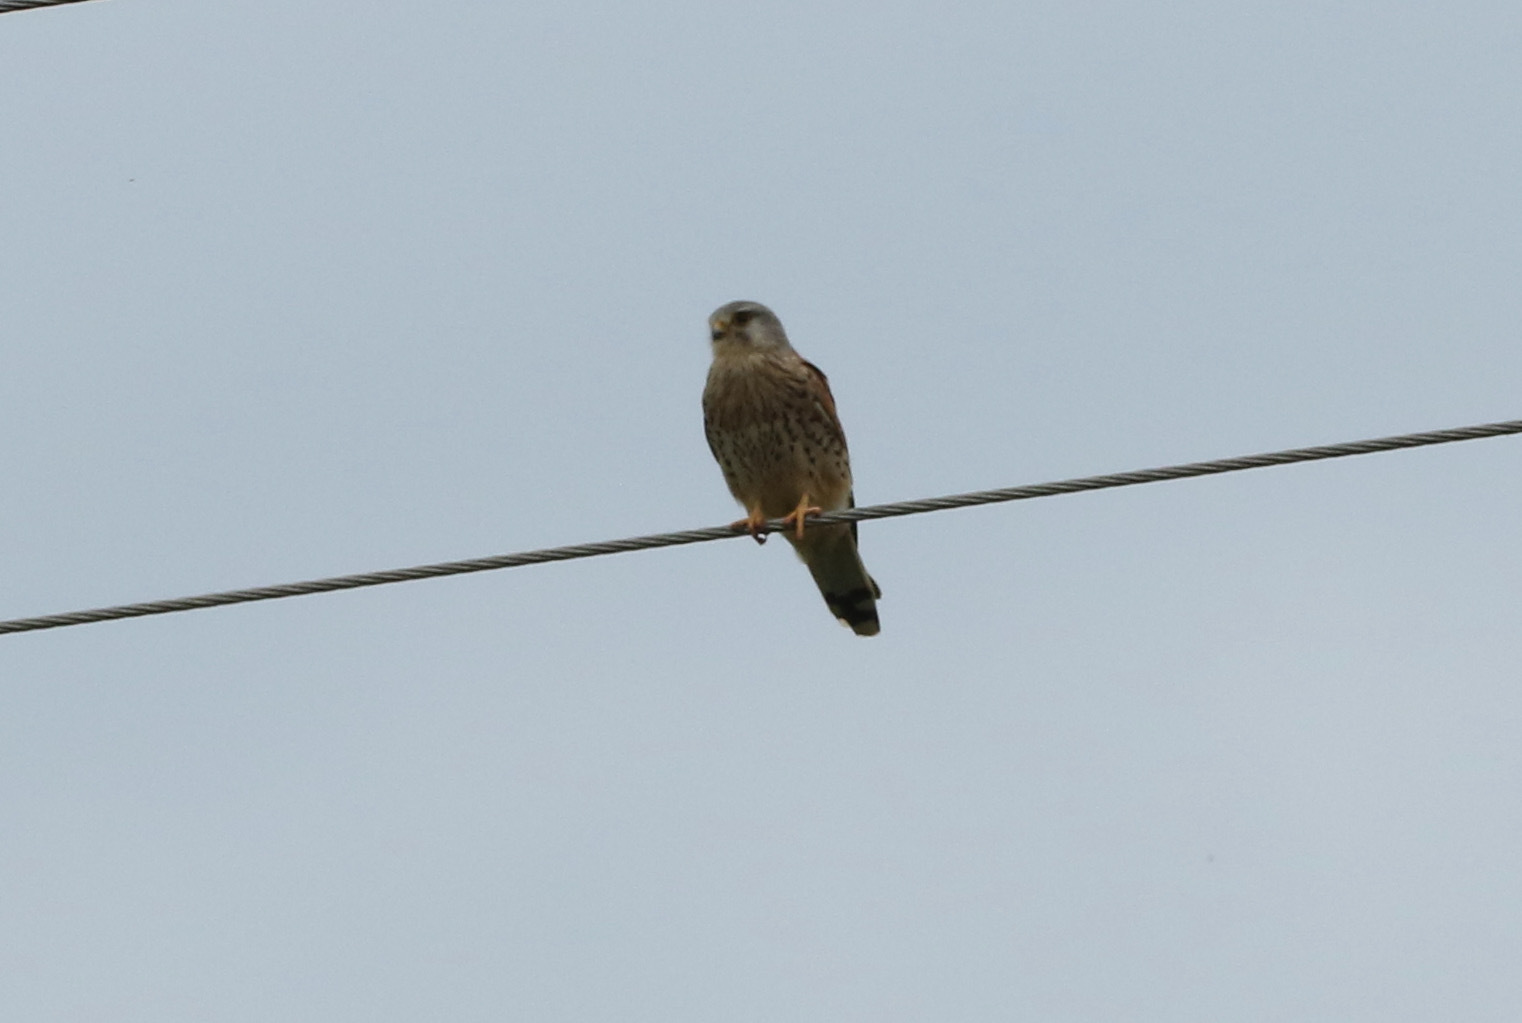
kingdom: Animalia
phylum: Chordata
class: Aves
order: Falconiformes
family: Falconidae
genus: Falco
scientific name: Falco tinnunculus
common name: Common kestrel
